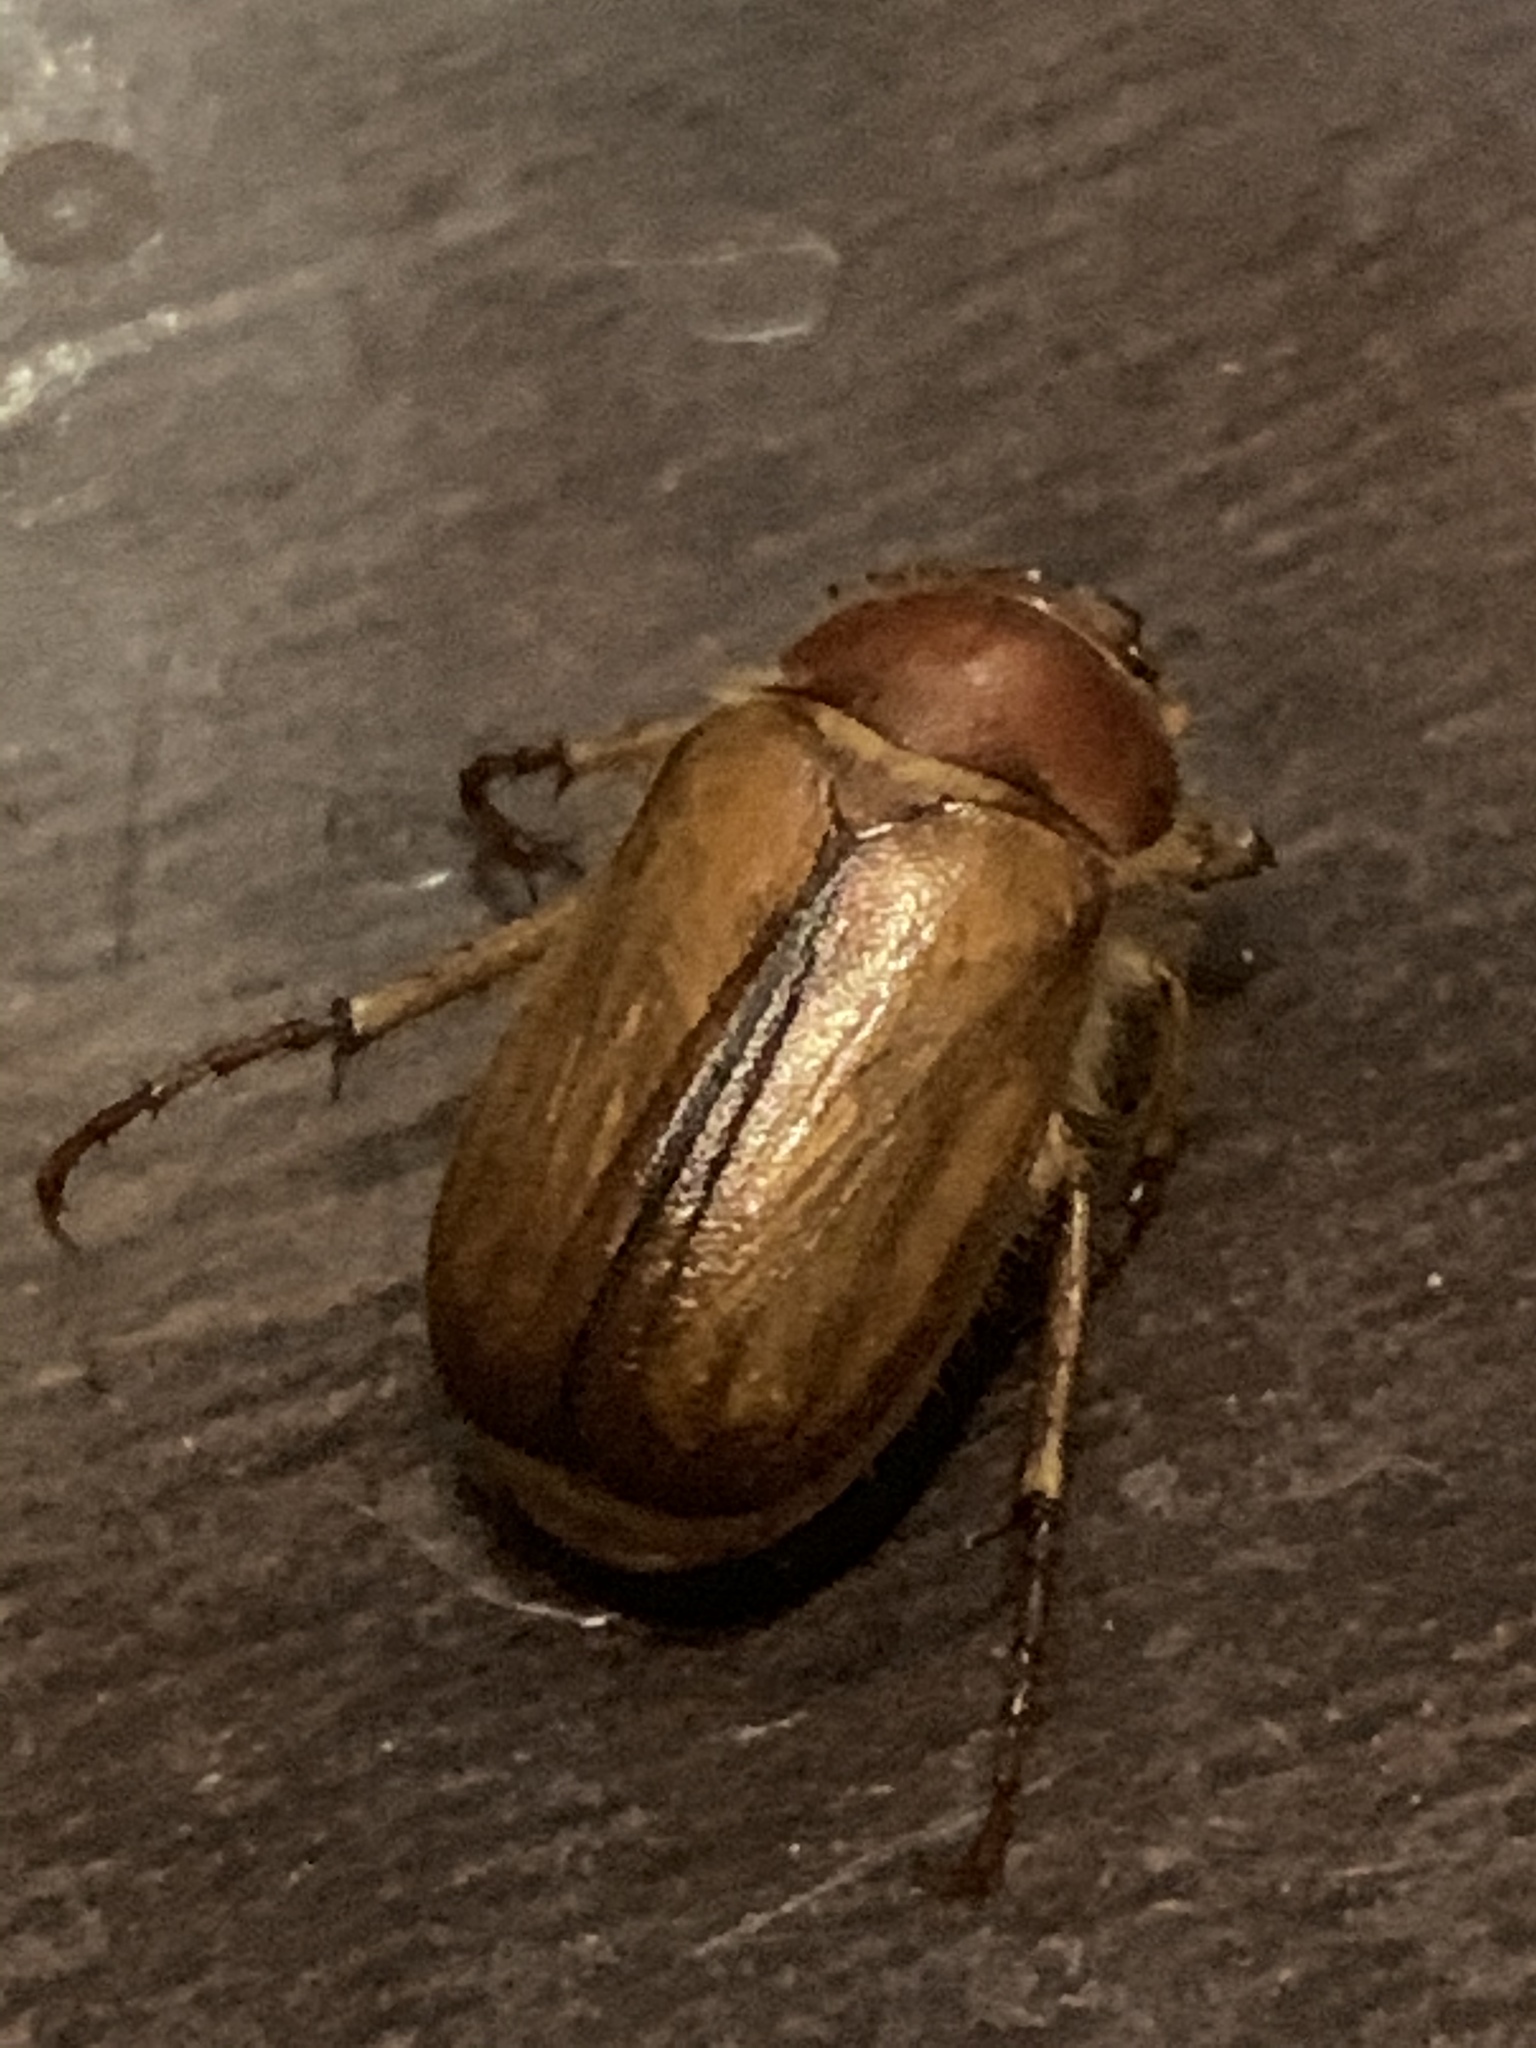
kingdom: Animalia
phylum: Arthropoda
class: Insecta
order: Coleoptera
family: Scarabaeidae
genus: Amphimallon
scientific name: Amphimallon majale
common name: European chafer
